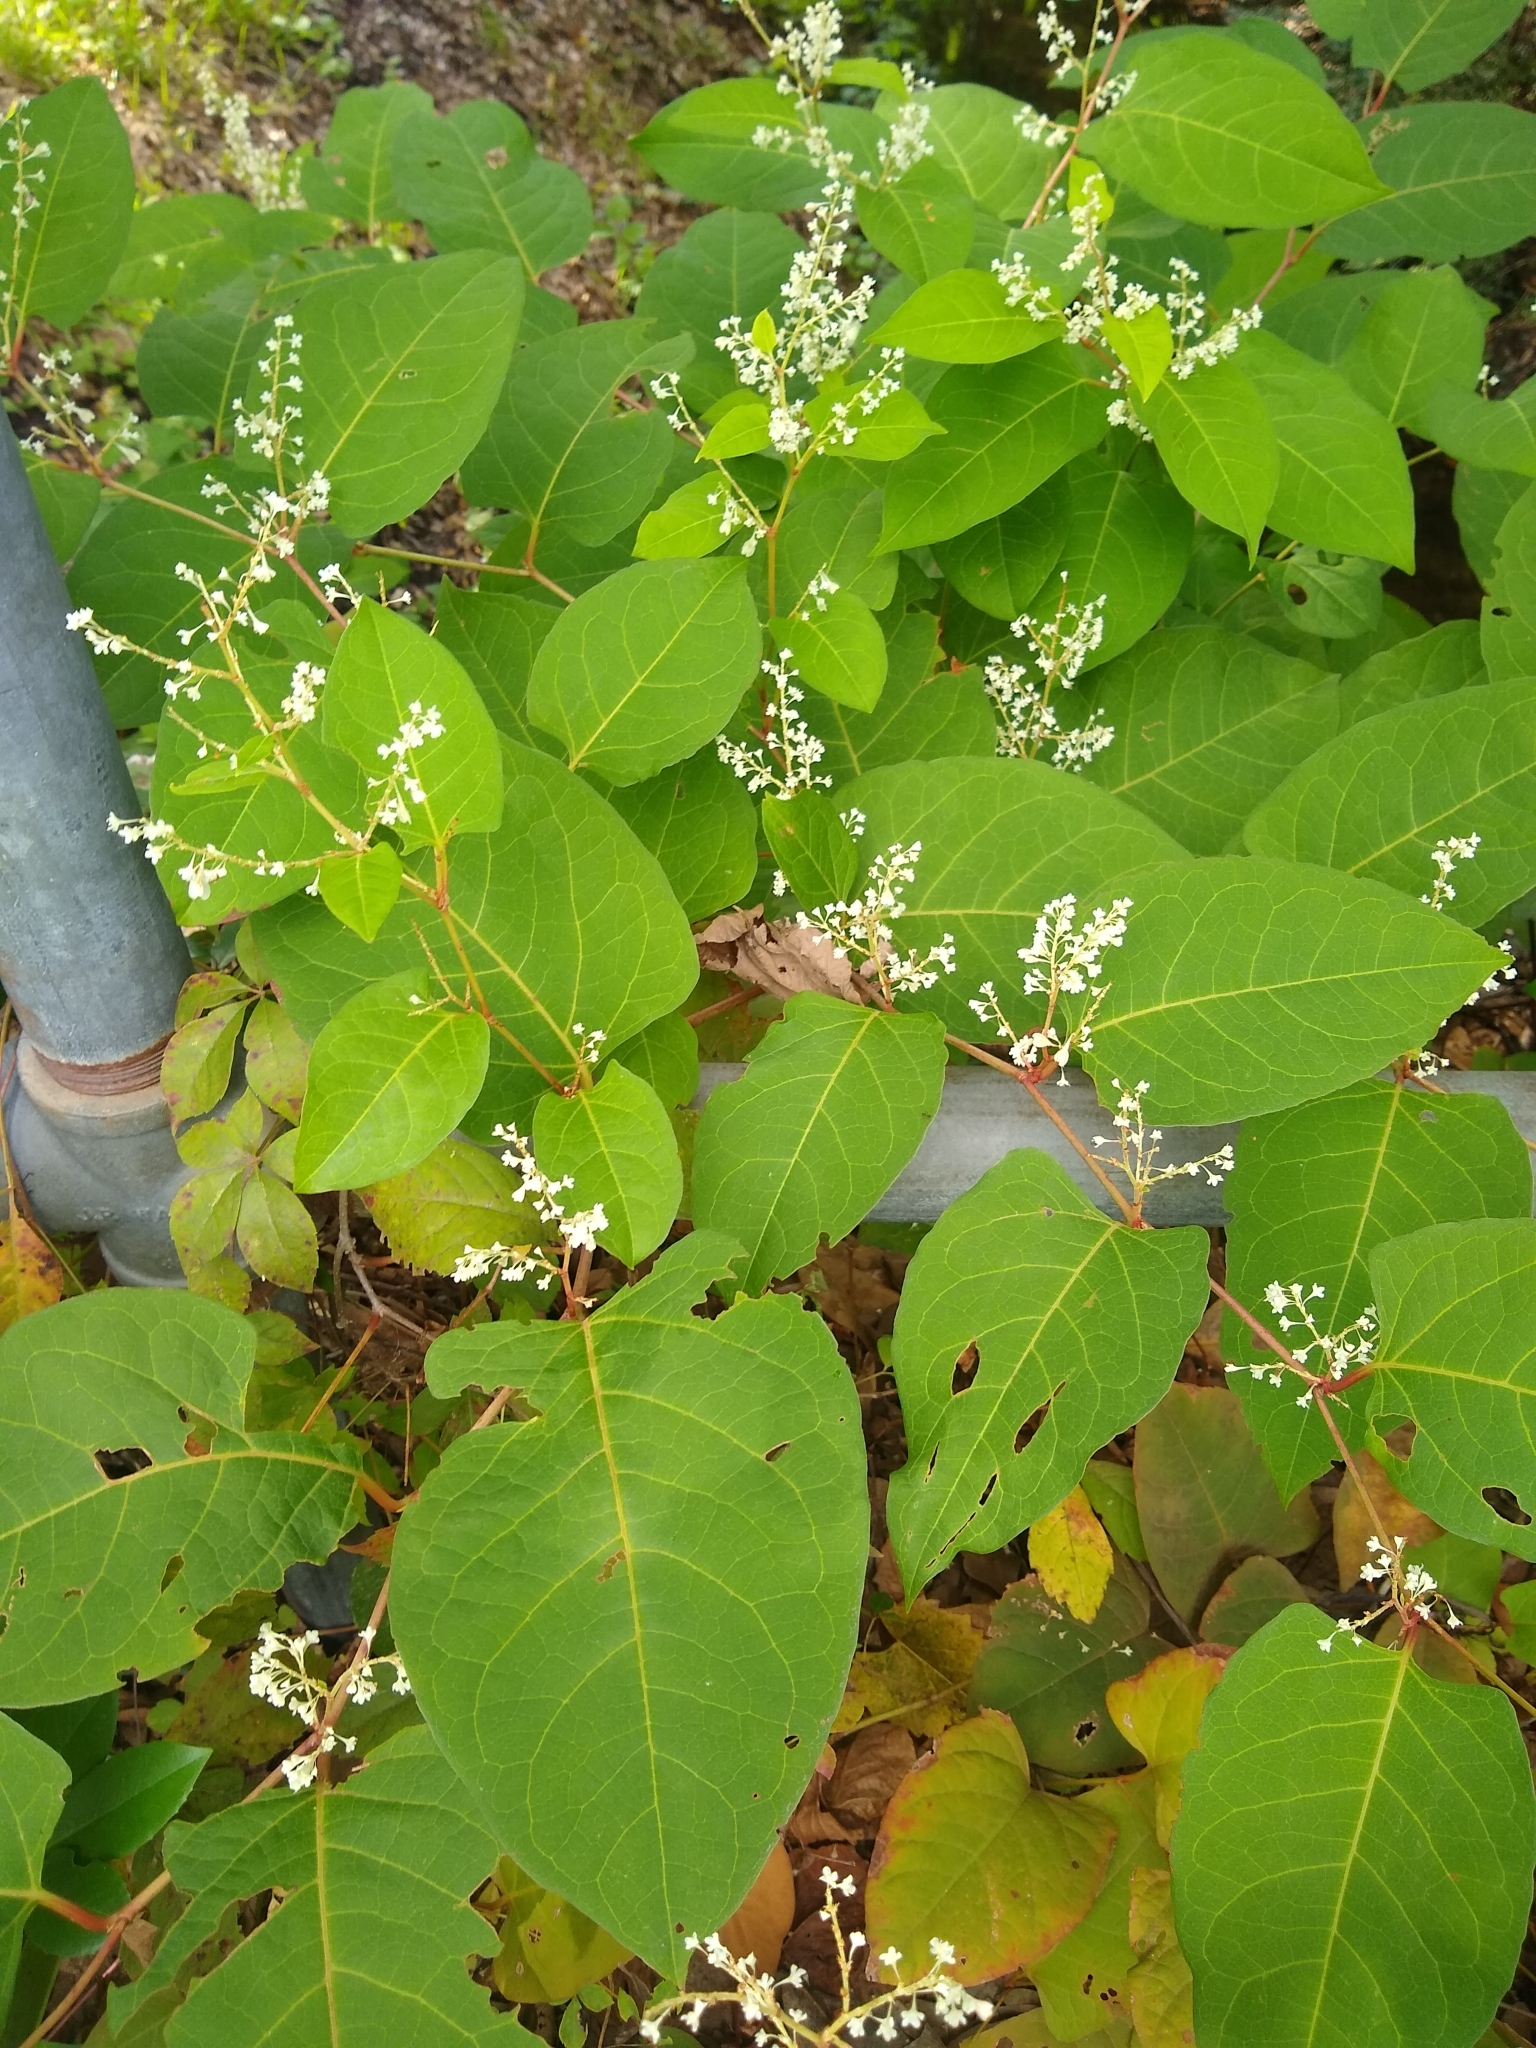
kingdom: Plantae
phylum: Tracheophyta
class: Magnoliopsida
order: Caryophyllales
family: Polygonaceae
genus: Reynoutria
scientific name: Reynoutria japonica
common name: Japanese knotweed
